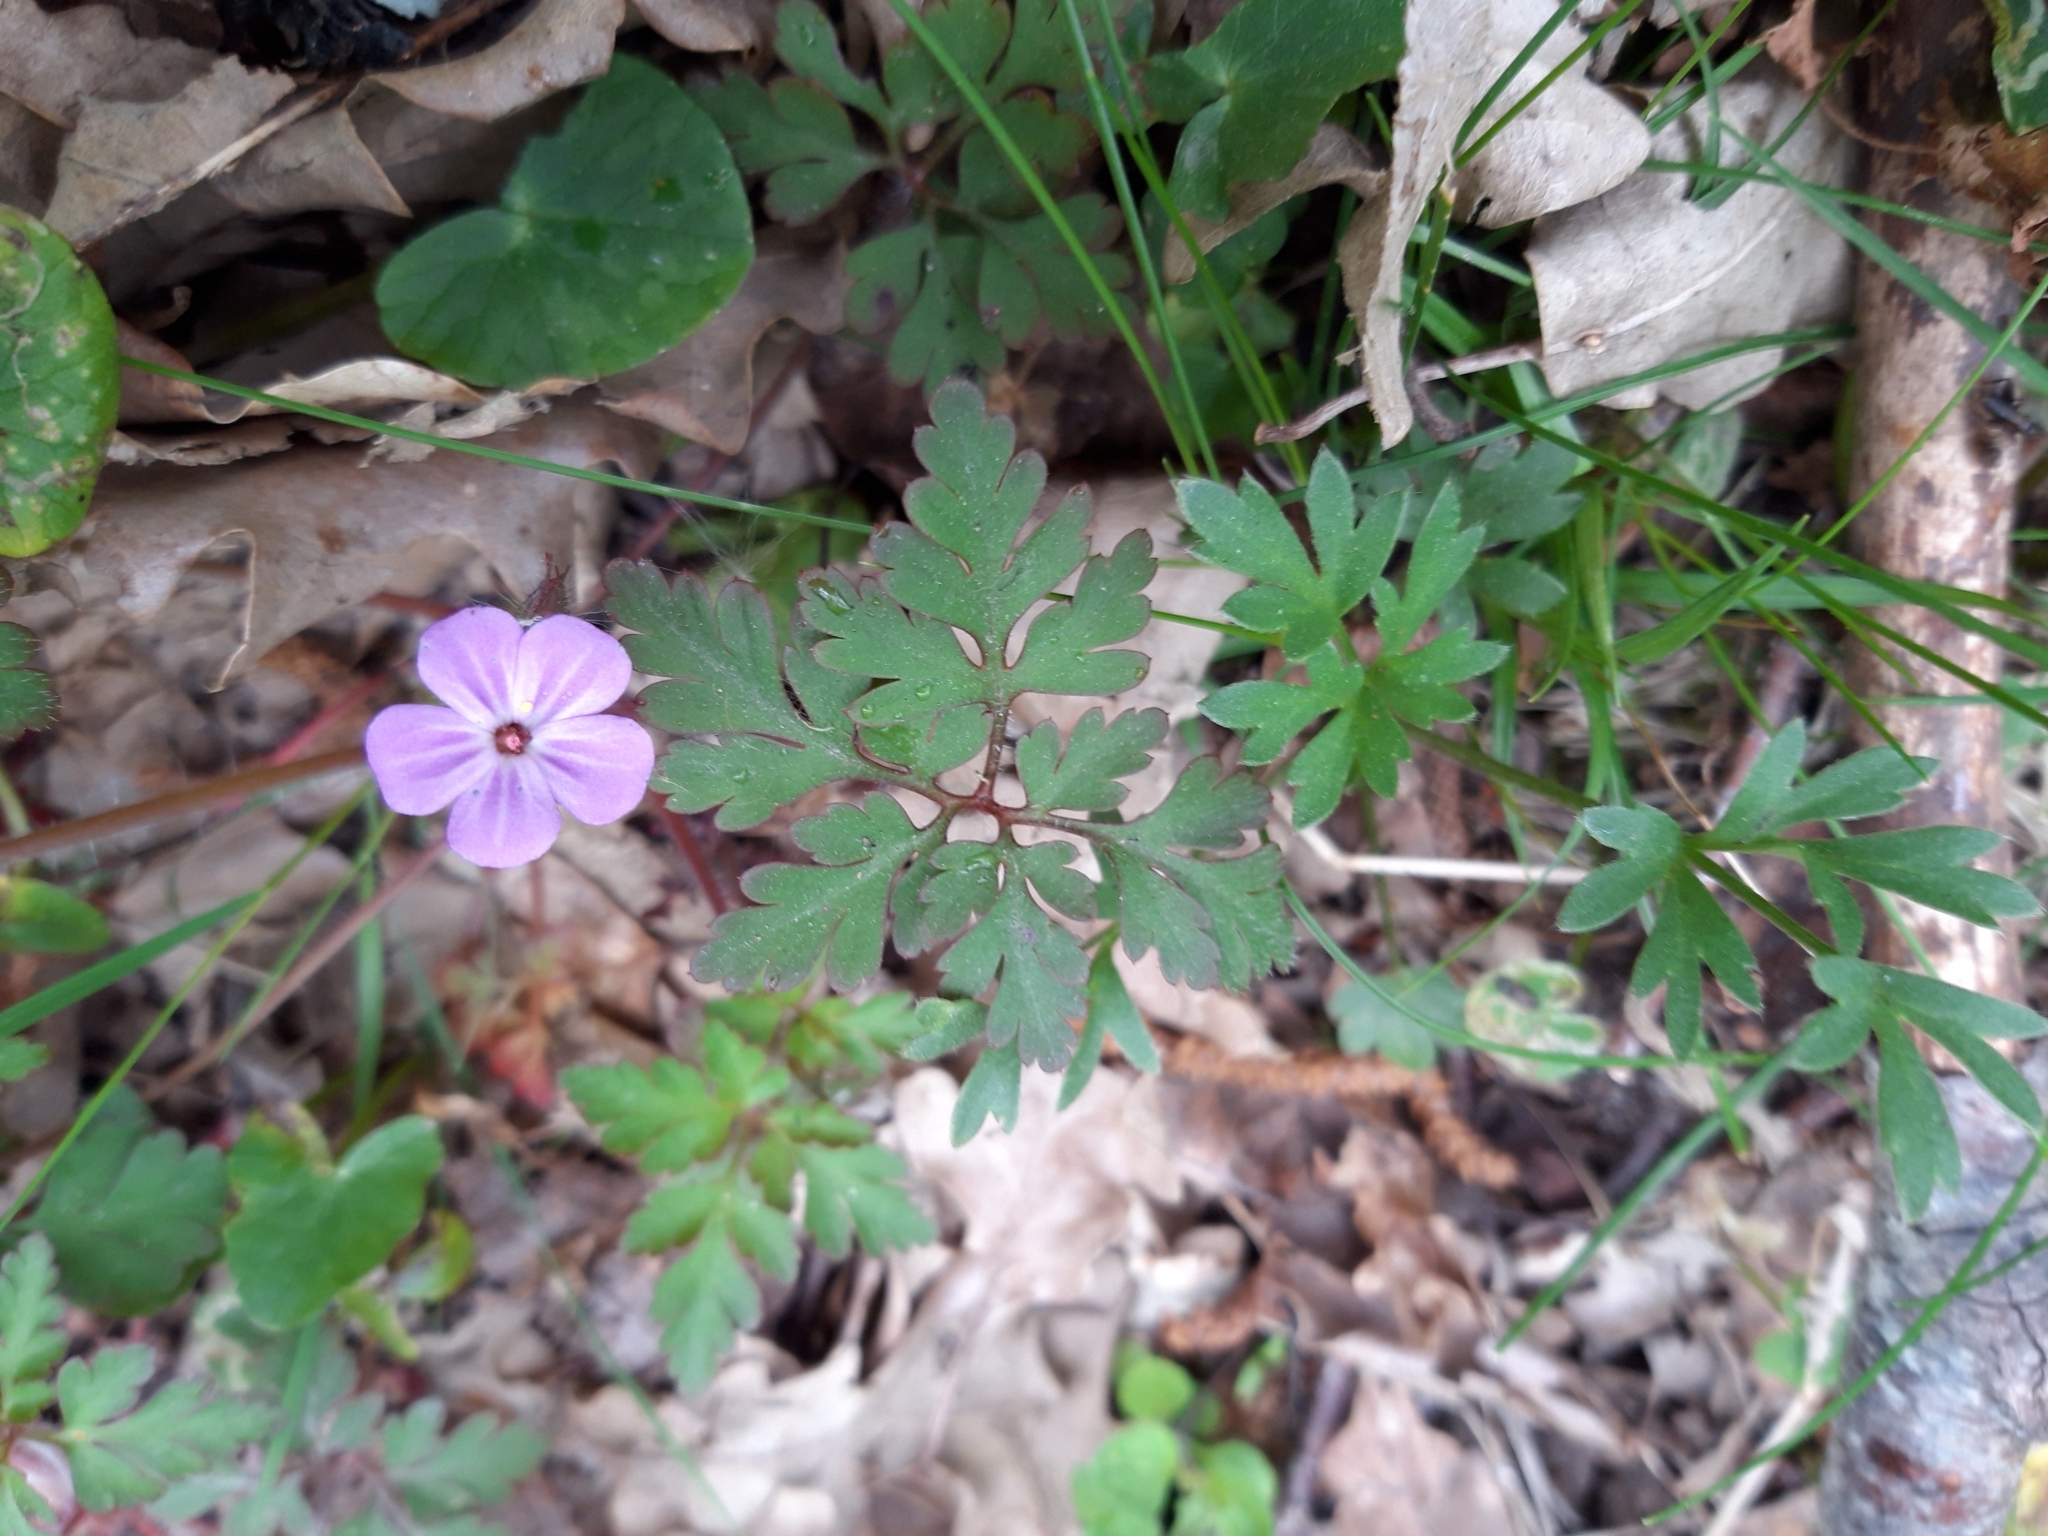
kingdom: Plantae
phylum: Tracheophyta
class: Magnoliopsida
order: Geraniales
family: Geraniaceae
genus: Geranium
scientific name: Geranium robertianum
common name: Herb-robert
